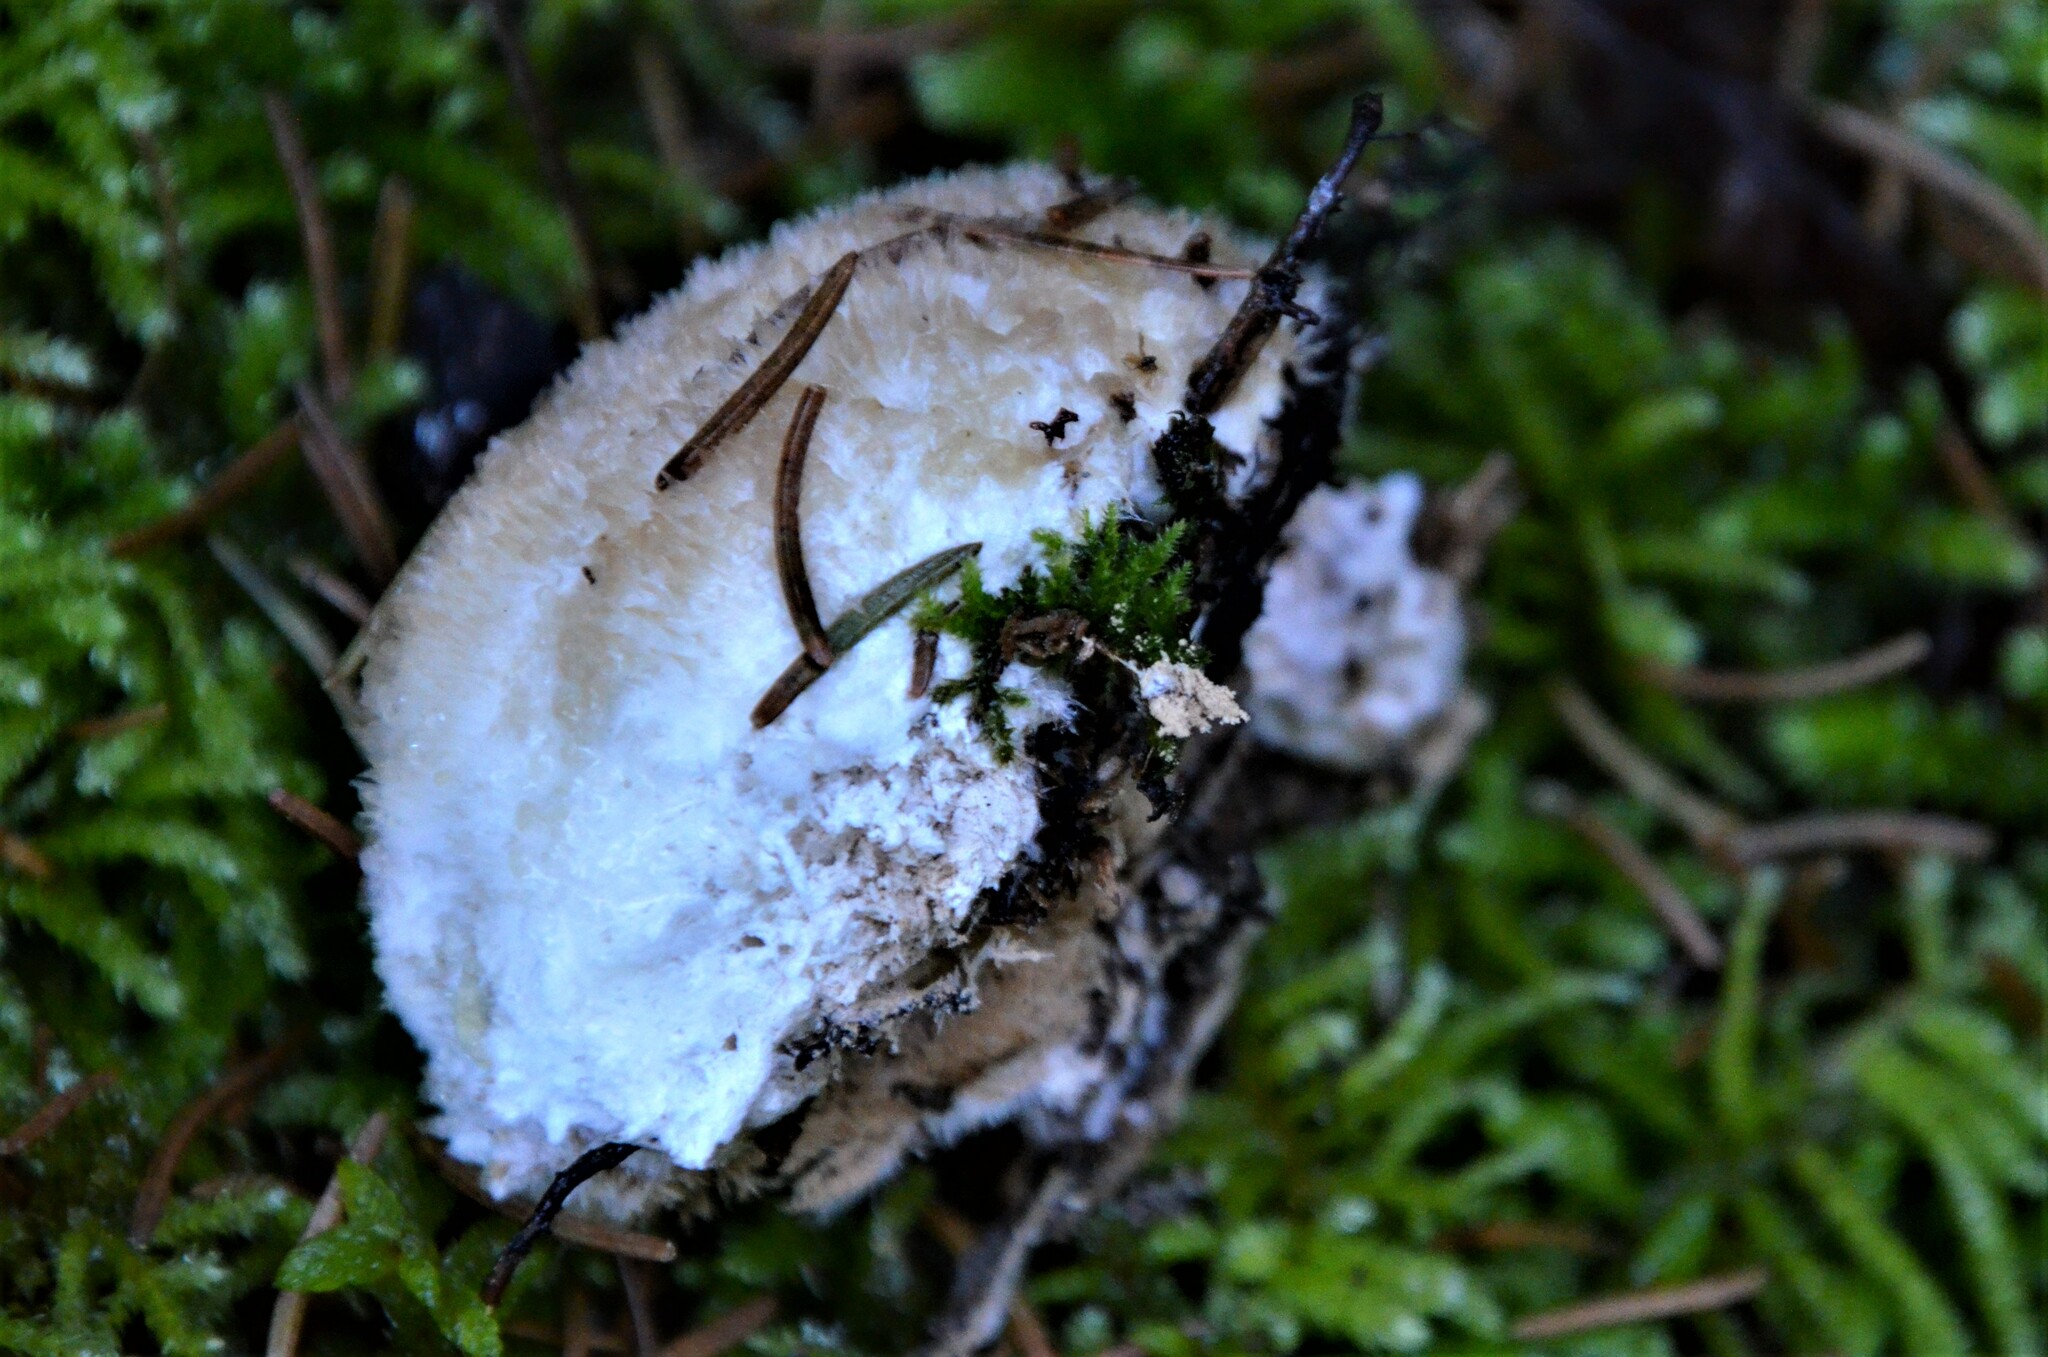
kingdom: Fungi
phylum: Basidiomycota
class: Agaricomycetes
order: Polyporales
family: Dacryobolaceae
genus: Postia
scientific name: Postia ptychogaster
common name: Powderpuff bracket
